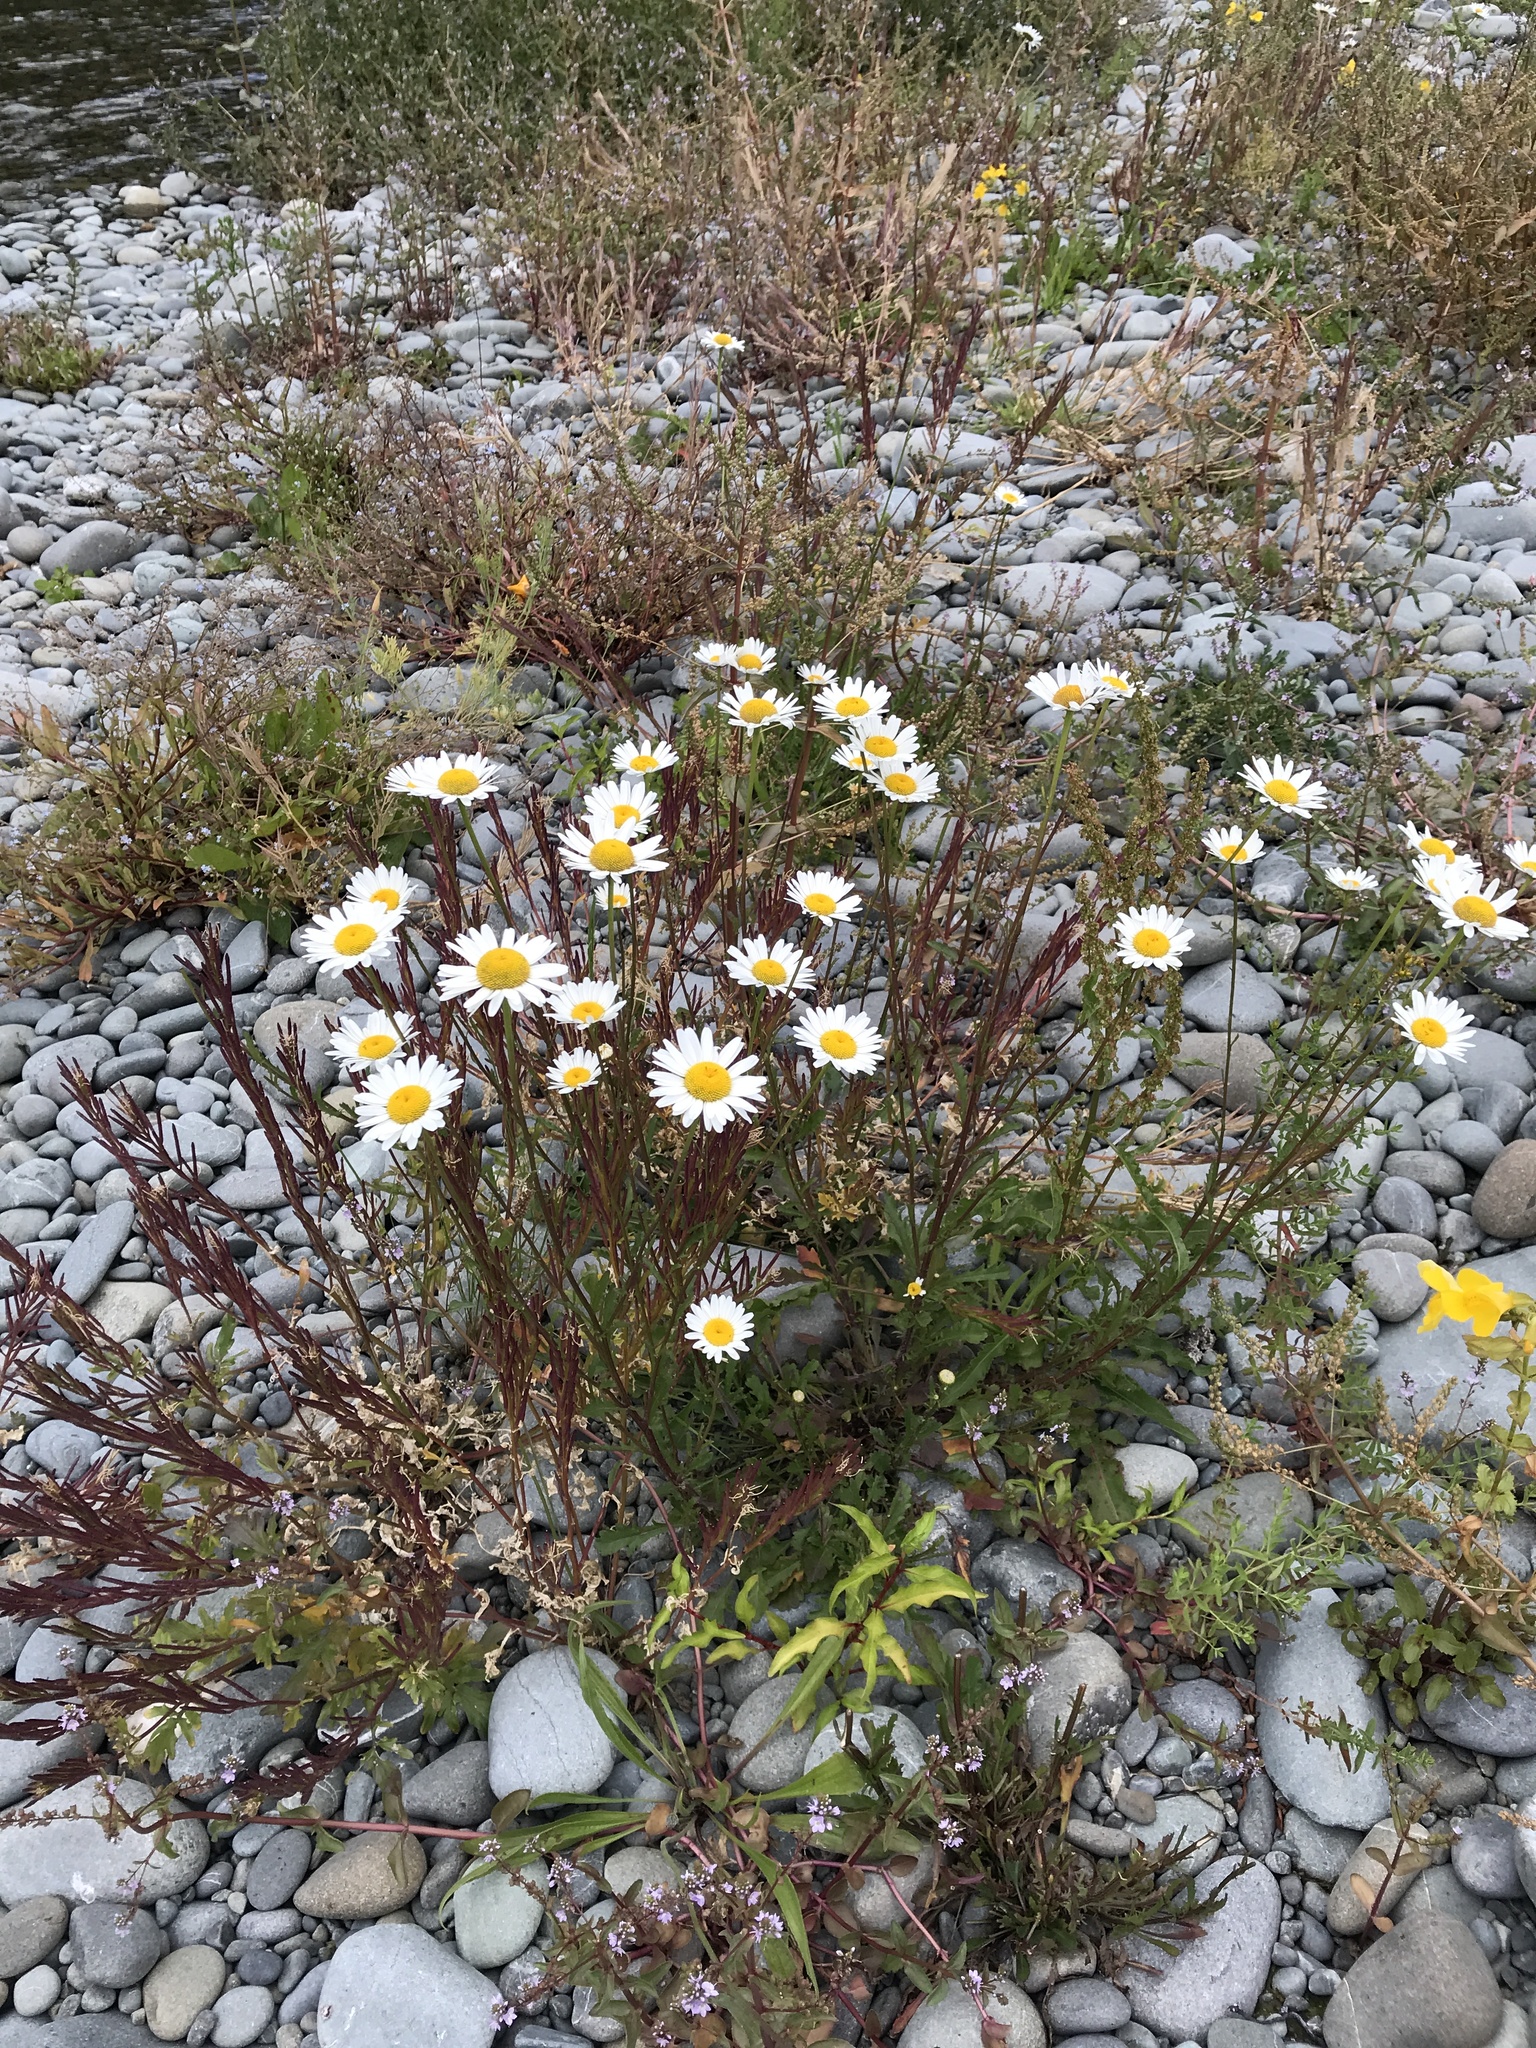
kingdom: Plantae
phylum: Tracheophyta
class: Magnoliopsida
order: Asterales
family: Asteraceae
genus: Leucanthemum
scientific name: Leucanthemum vulgare
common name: Oxeye daisy
